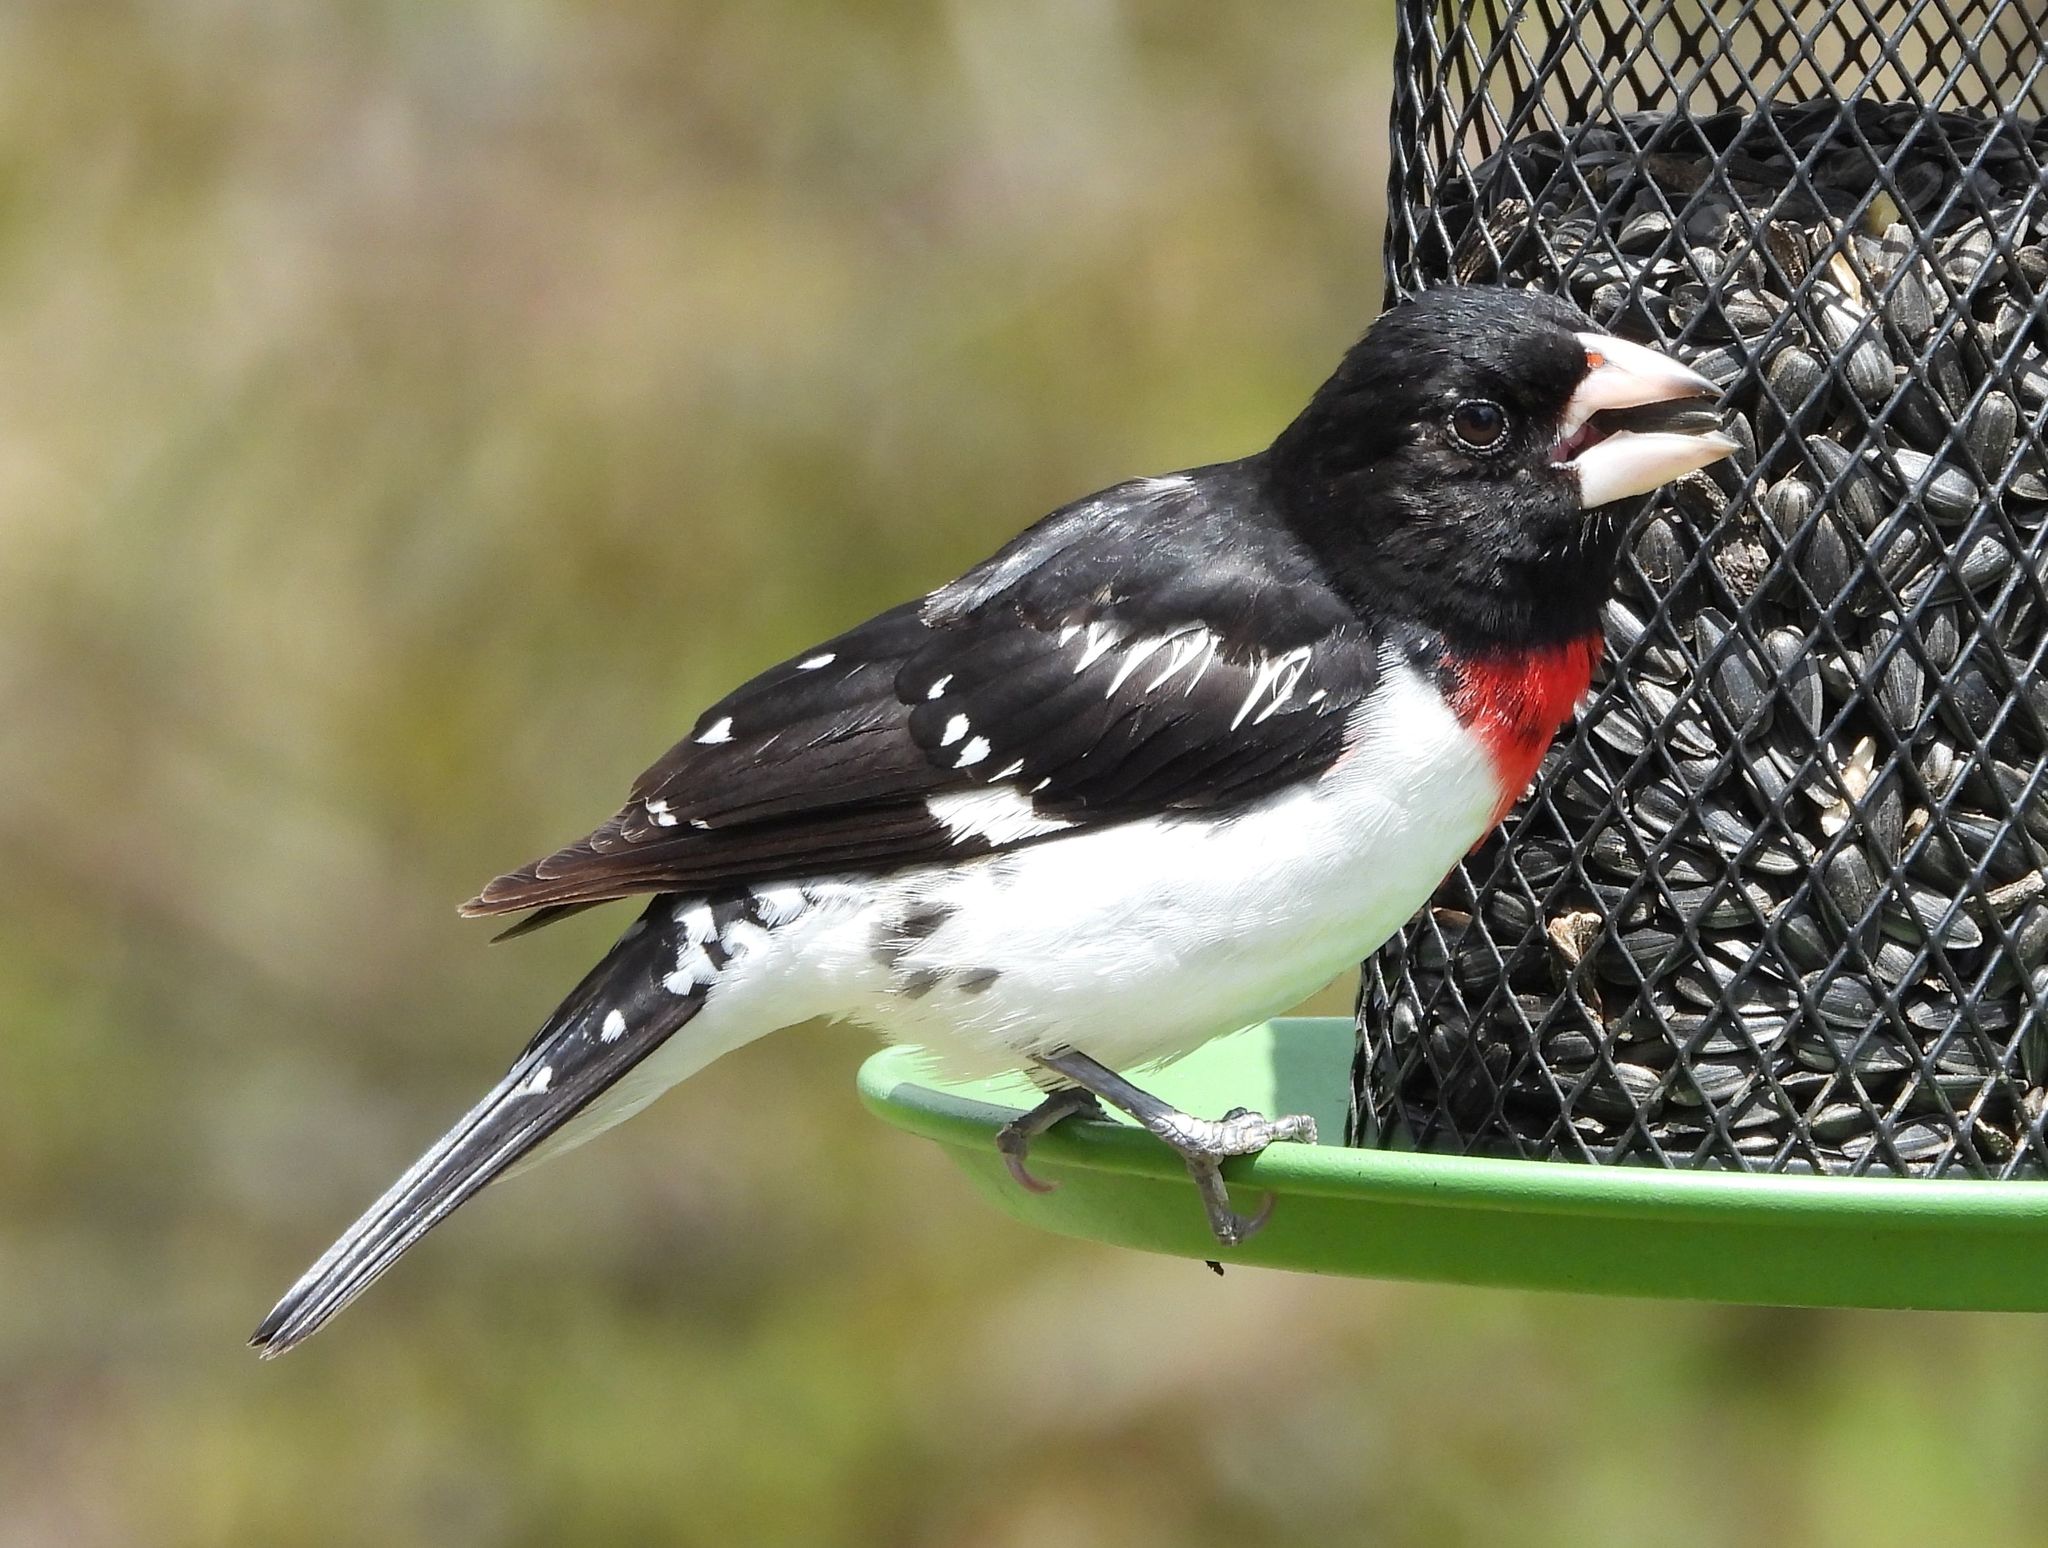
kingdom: Animalia
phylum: Chordata
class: Aves
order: Passeriformes
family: Cardinalidae
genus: Pheucticus
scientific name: Pheucticus ludovicianus
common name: Rose-breasted grosbeak
